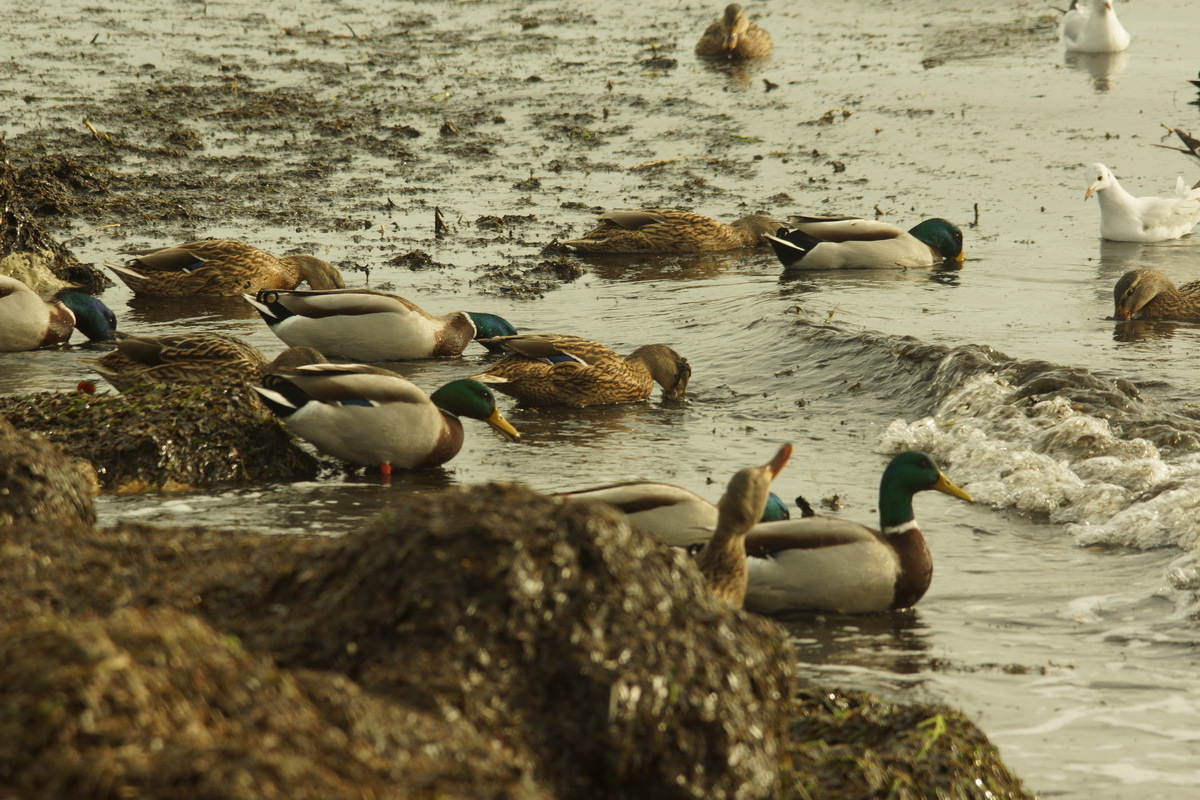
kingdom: Animalia
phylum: Chordata
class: Aves
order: Anseriformes
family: Anatidae
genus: Anas
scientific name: Anas platyrhynchos
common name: Mallard
